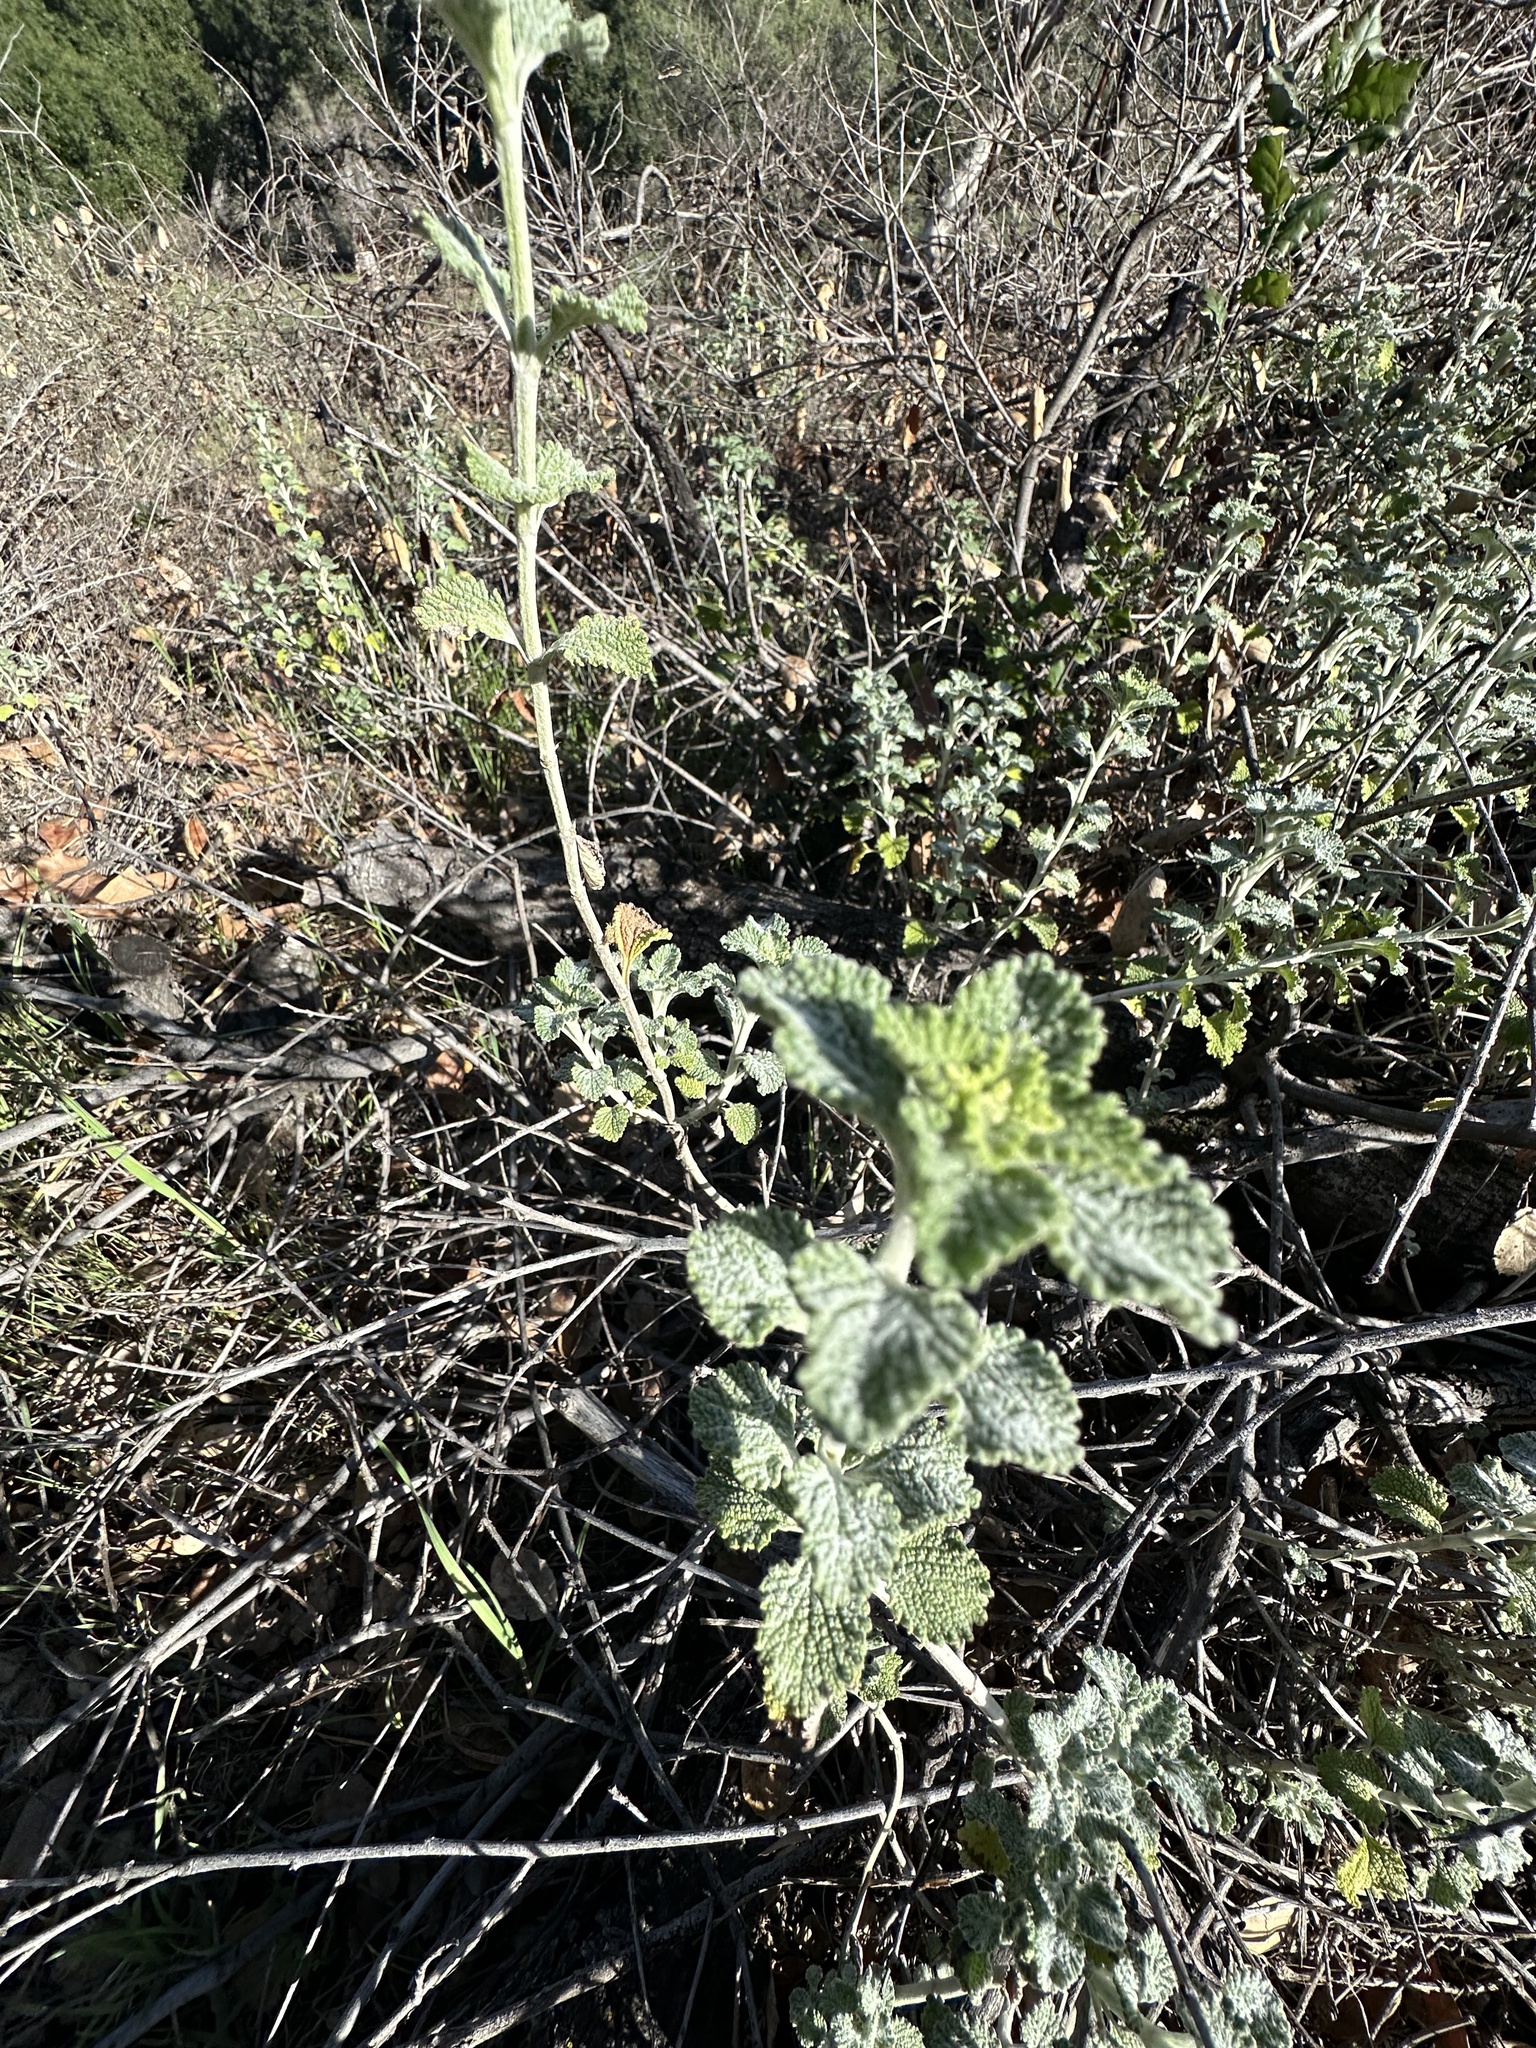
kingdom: Plantae
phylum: Tracheophyta
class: Magnoliopsida
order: Lamiales
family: Lamiaceae
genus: Marrubium
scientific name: Marrubium vulgare
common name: Horehound
